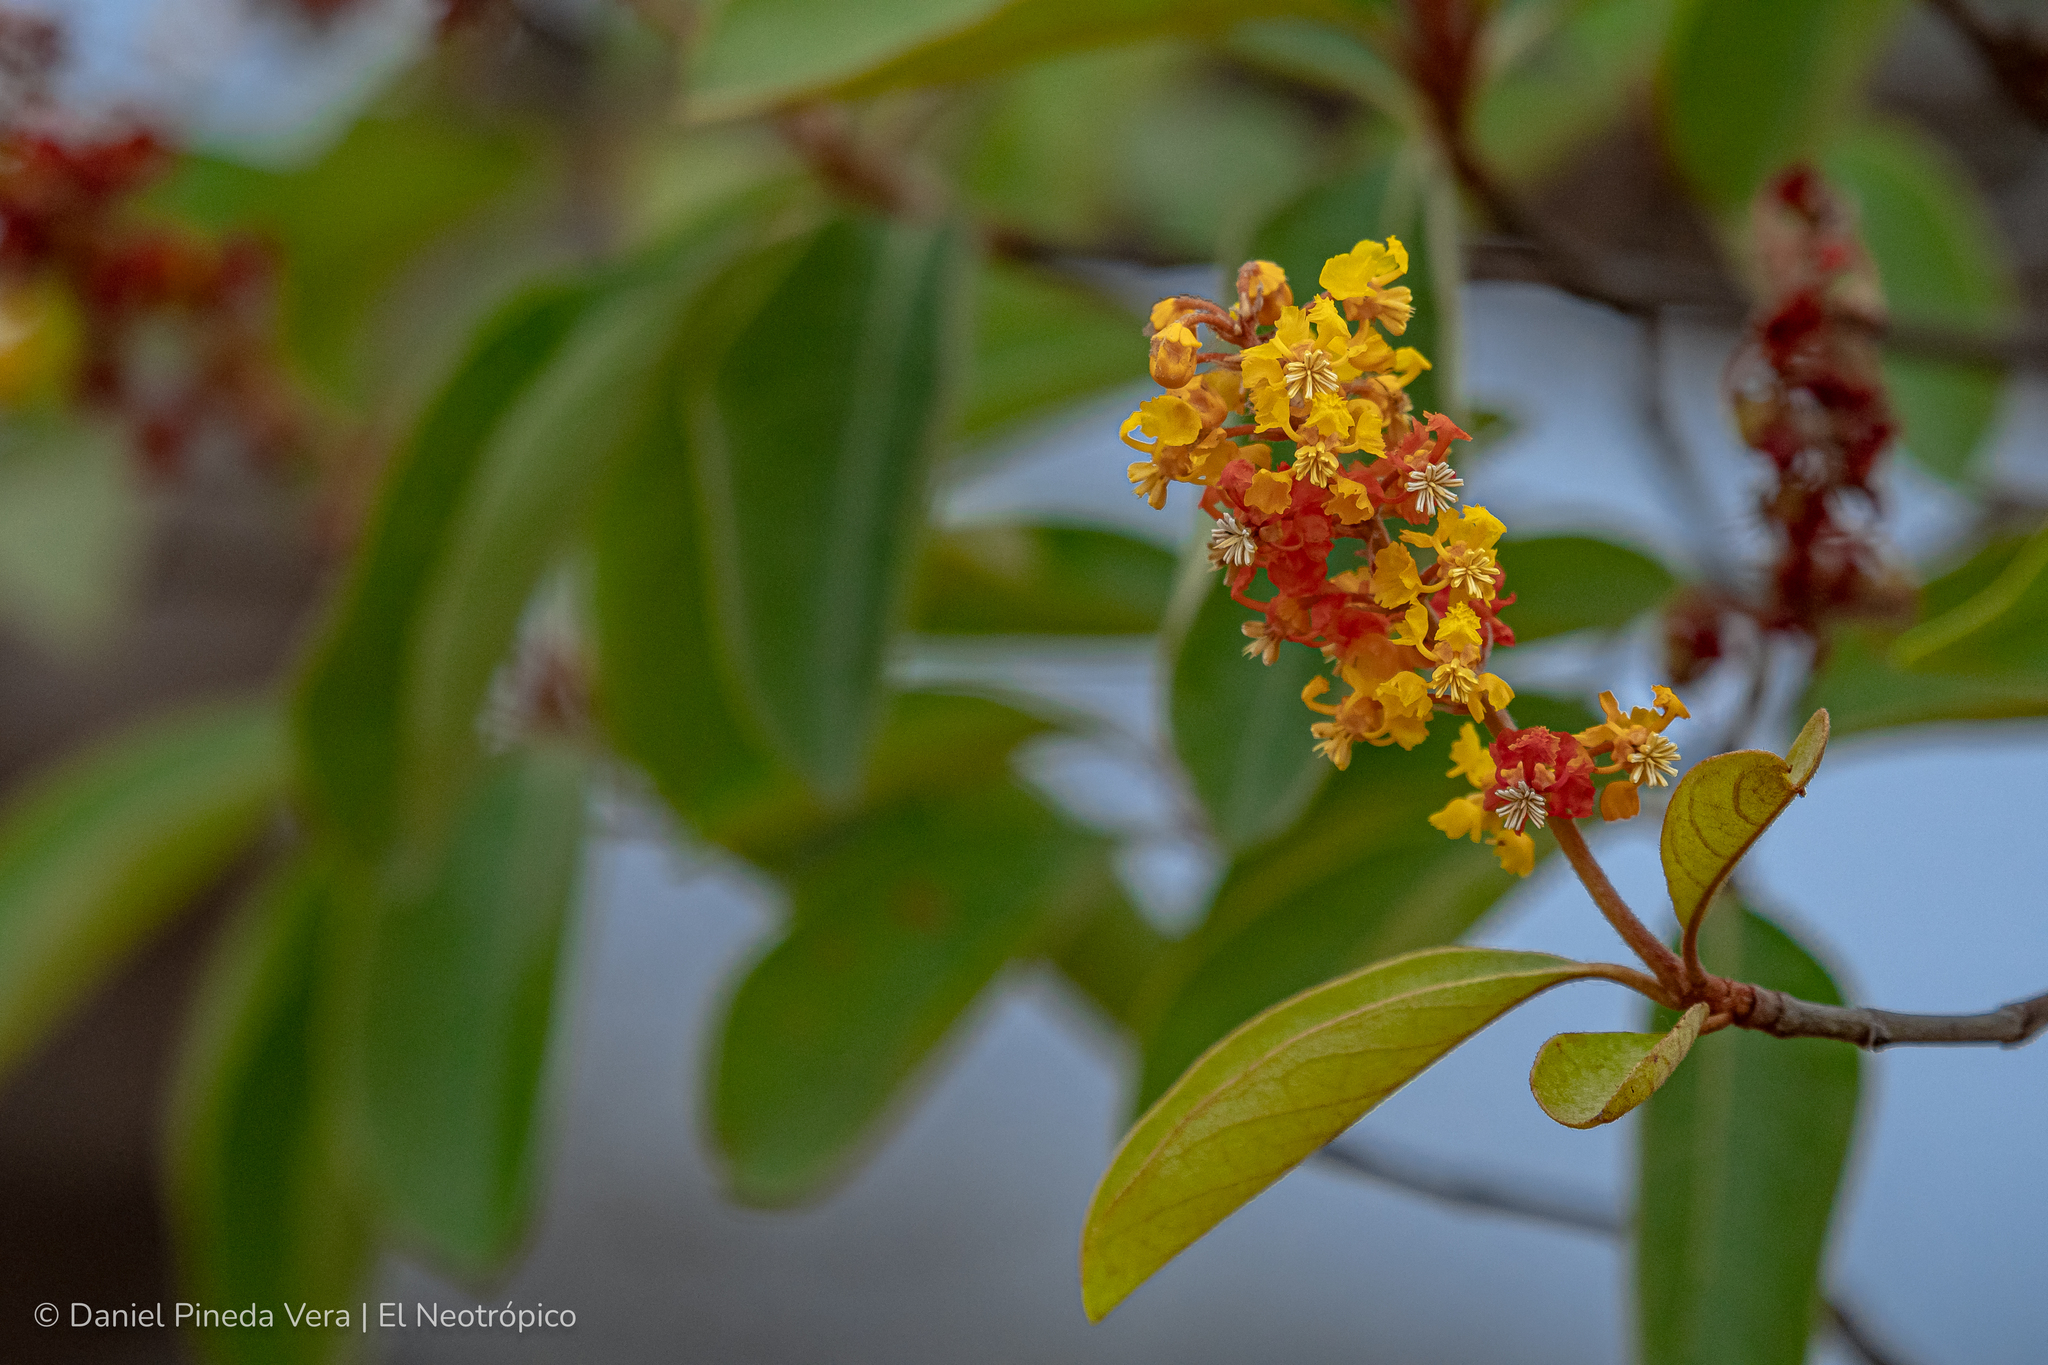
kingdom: Plantae
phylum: Tracheophyta
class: Magnoliopsida
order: Malpighiales
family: Malpighiaceae
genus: Byrsonima
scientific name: Byrsonima crassifolia
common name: Golden spoon
